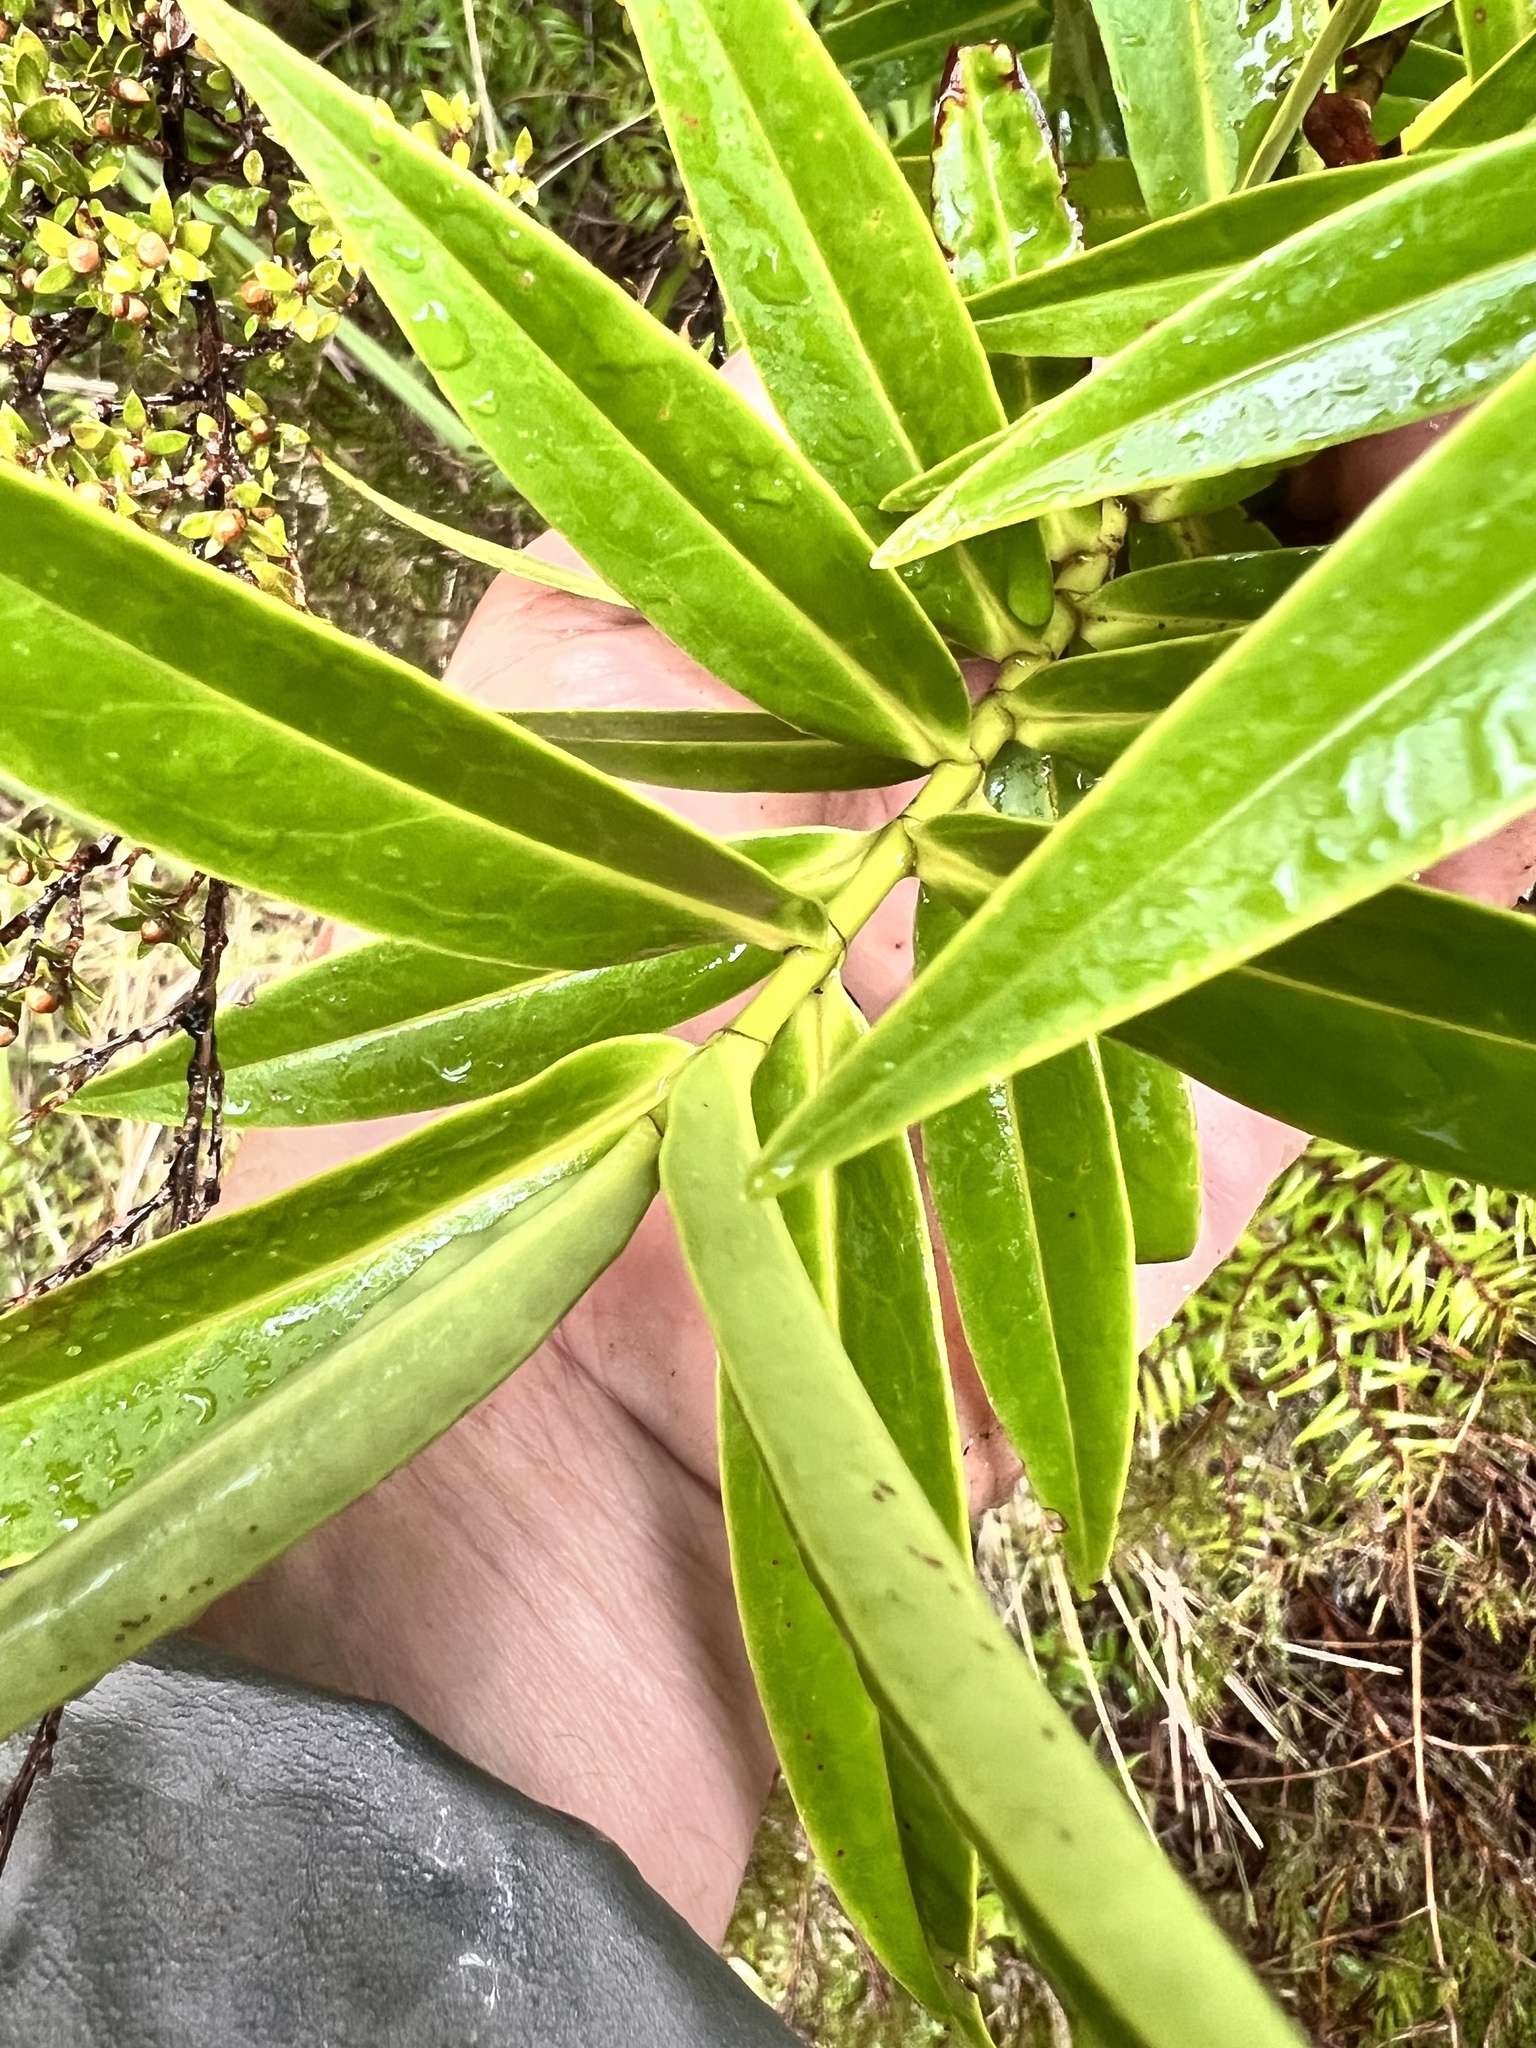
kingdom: Plantae
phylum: Tracheophyta
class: Magnoliopsida
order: Lamiales
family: Plantaginaceae
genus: Veronica
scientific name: Veronica stricta
